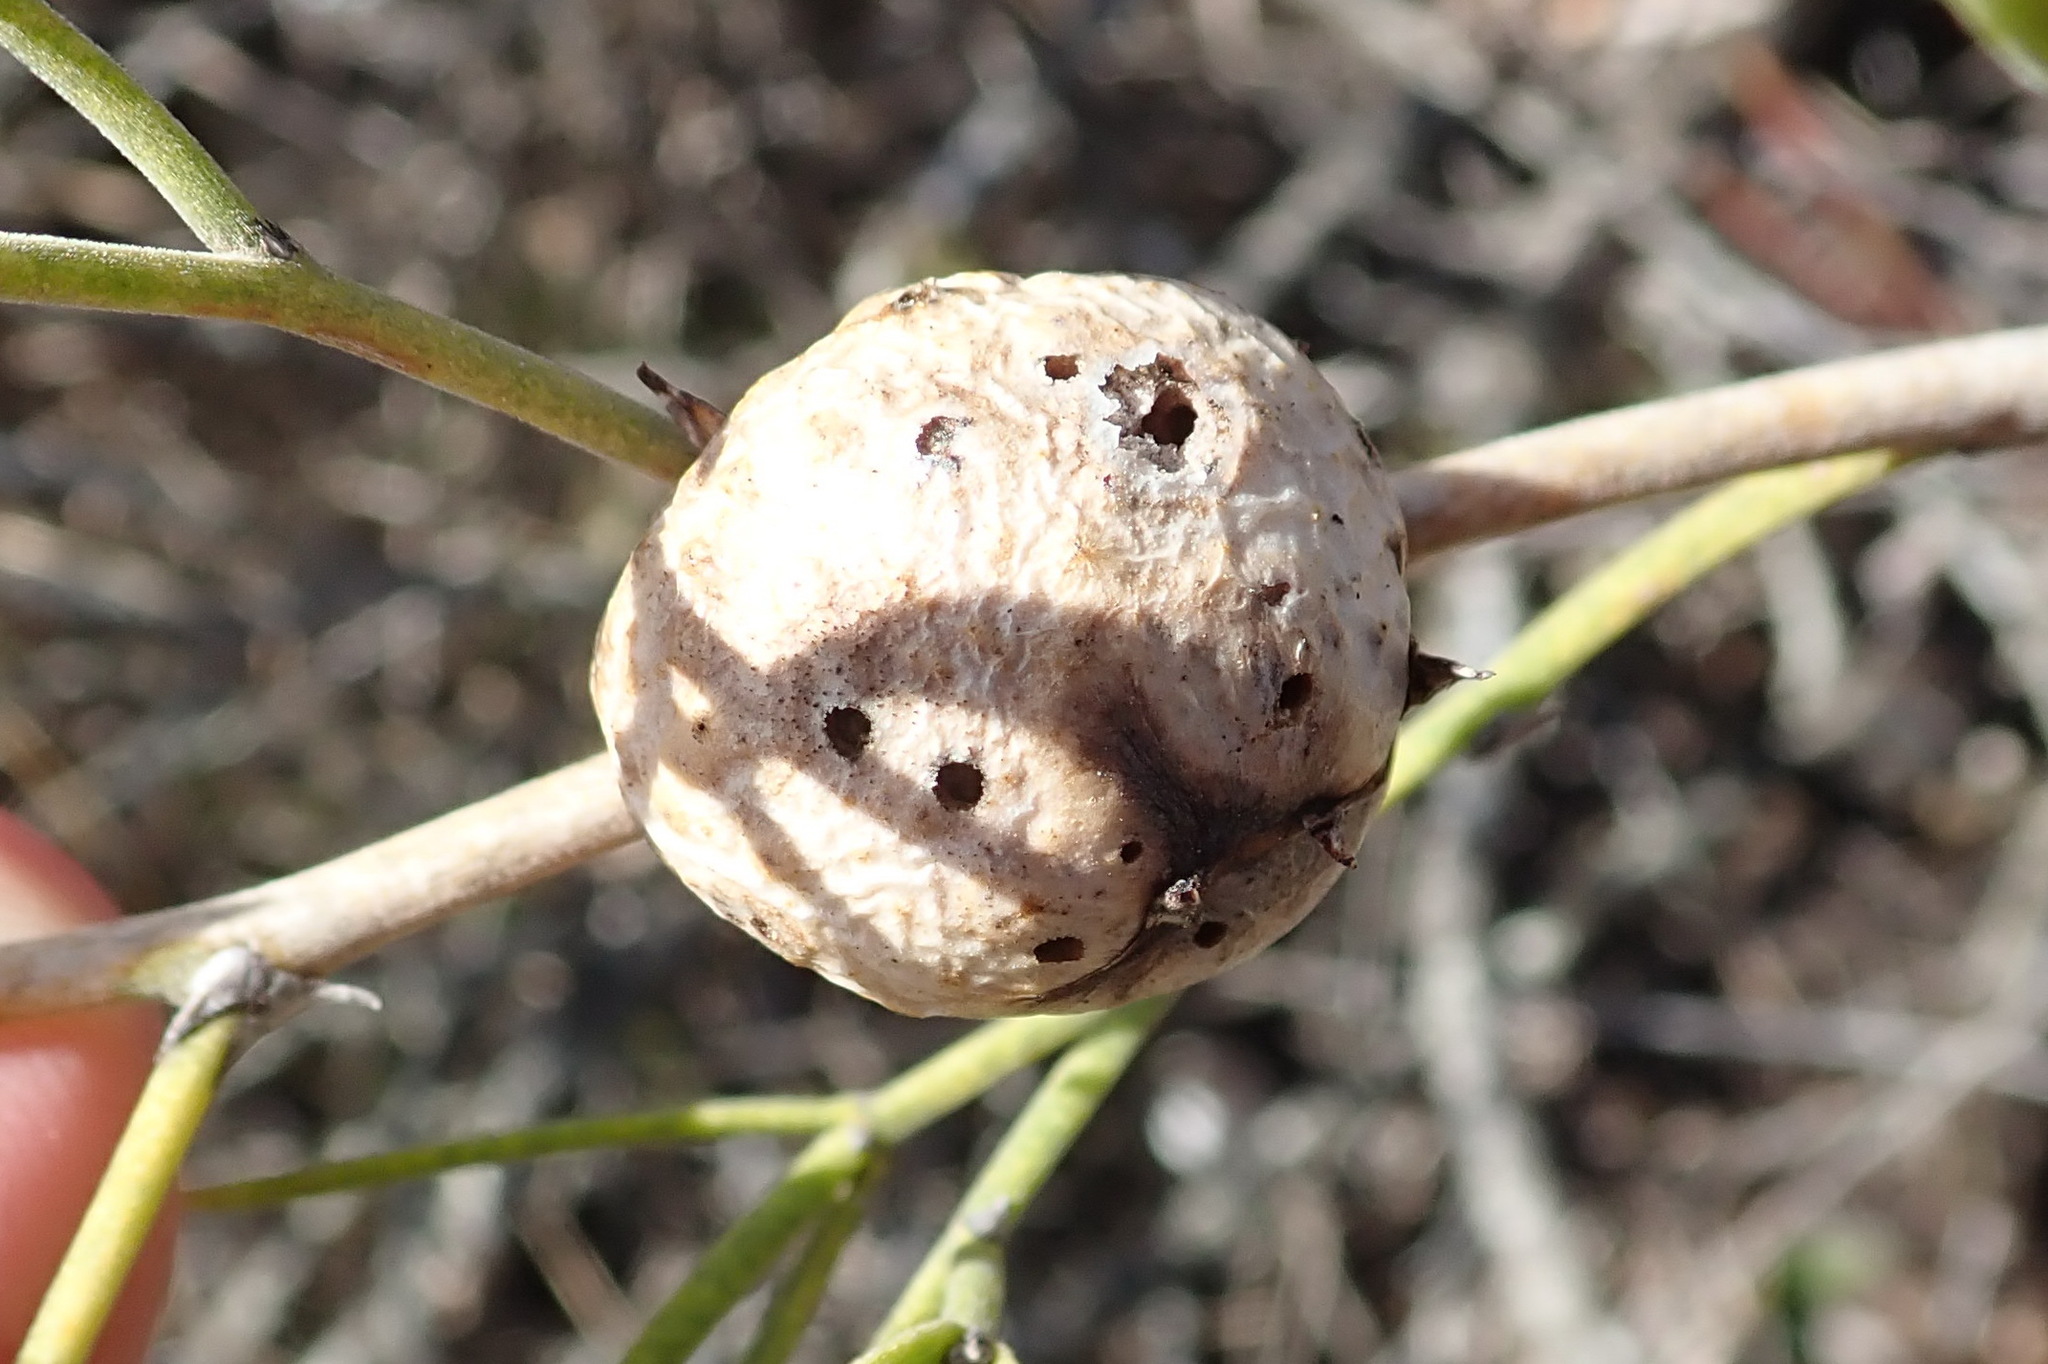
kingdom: Animalia
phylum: Arthropoda
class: Insecta
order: Hymenoptera
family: Pteromalidae
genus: Asparagobius
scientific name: Asparagobius braunsi
